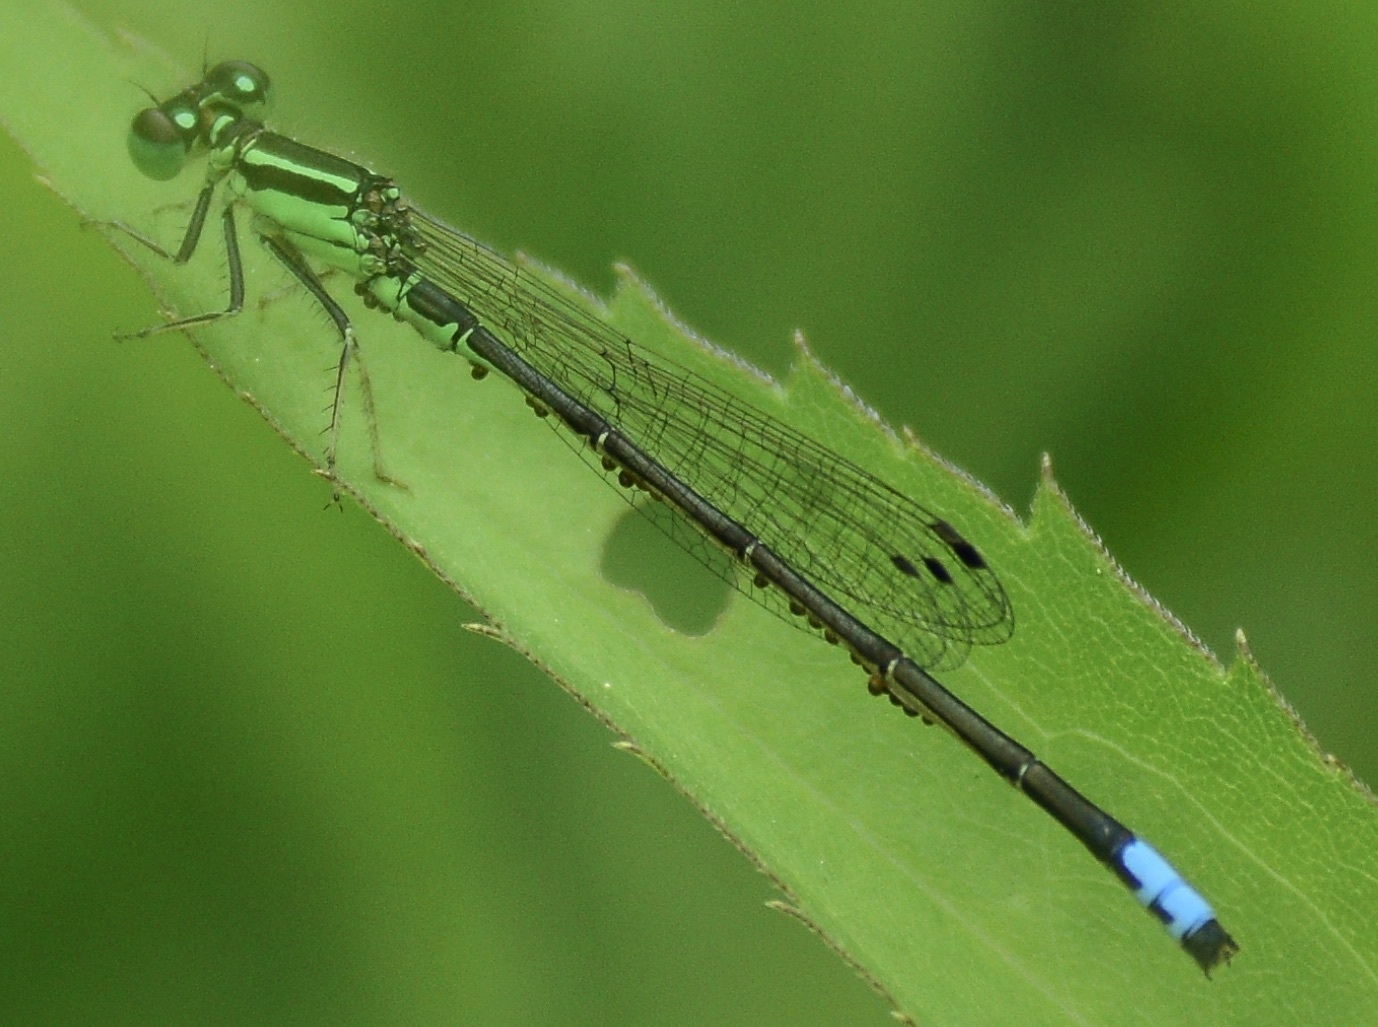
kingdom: Animalia
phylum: Arthropoda
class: Insecta
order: Odonata
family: Coenagrionidae
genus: Ischnura
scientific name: Ischnura verticalis
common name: Eastern forktail
